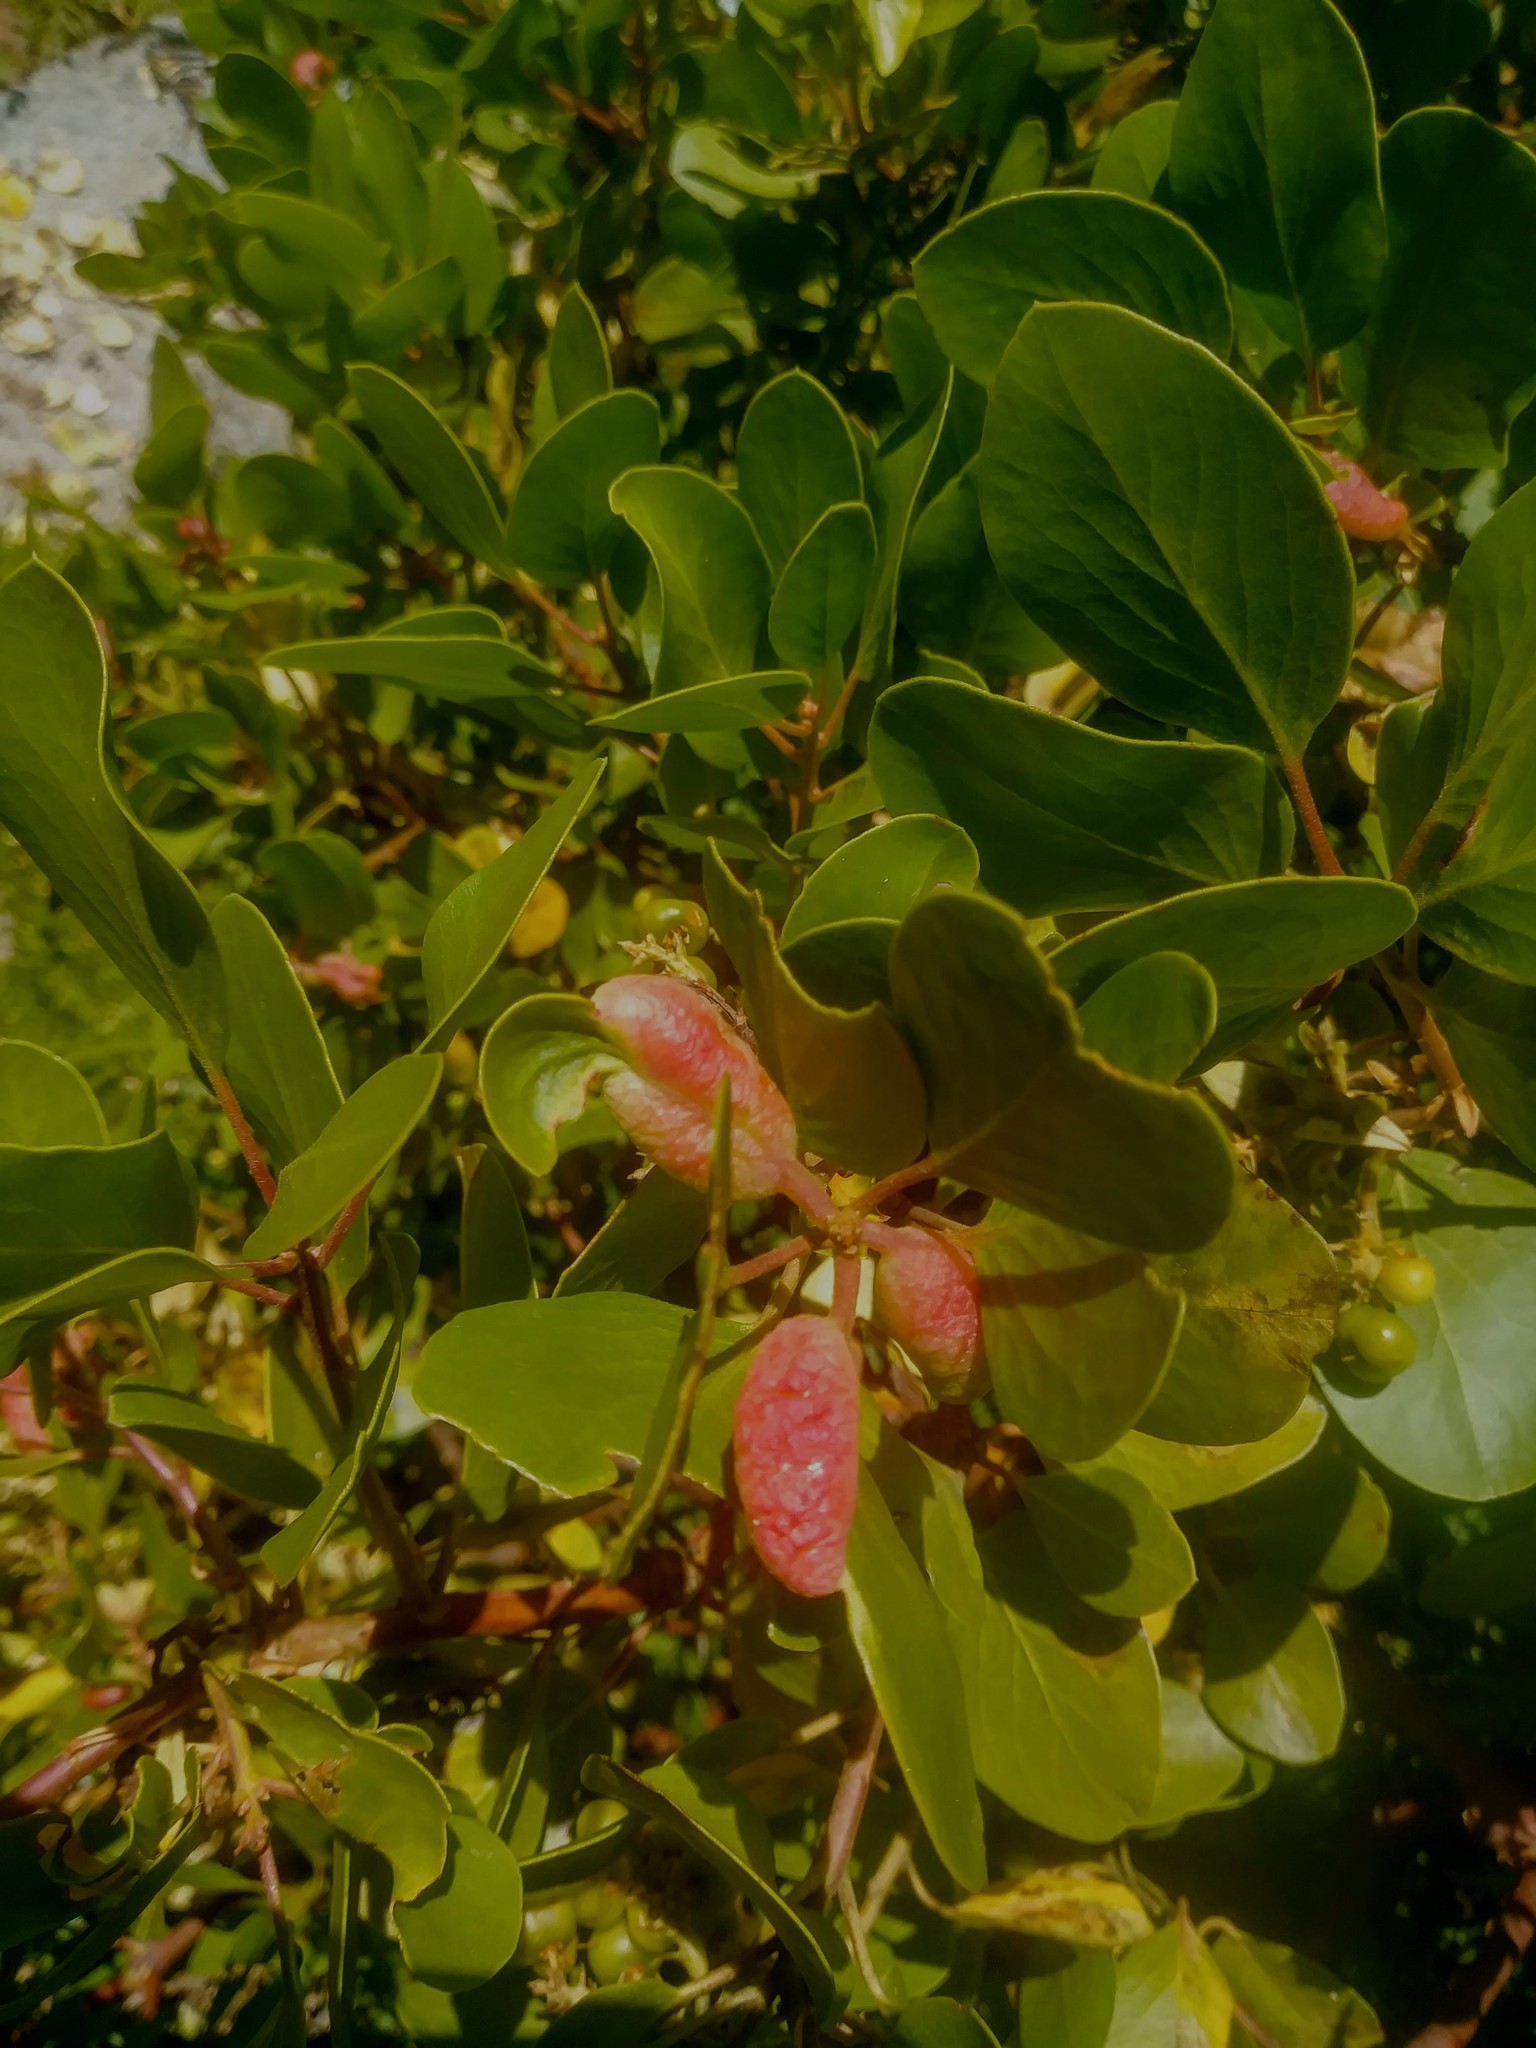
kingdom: Animalia
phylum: Arthropoda
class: Insecta
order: Hemiptera
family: Aphididae
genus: Tamalia
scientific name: Tamalia coweni
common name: Manzanita leafgall aphid
